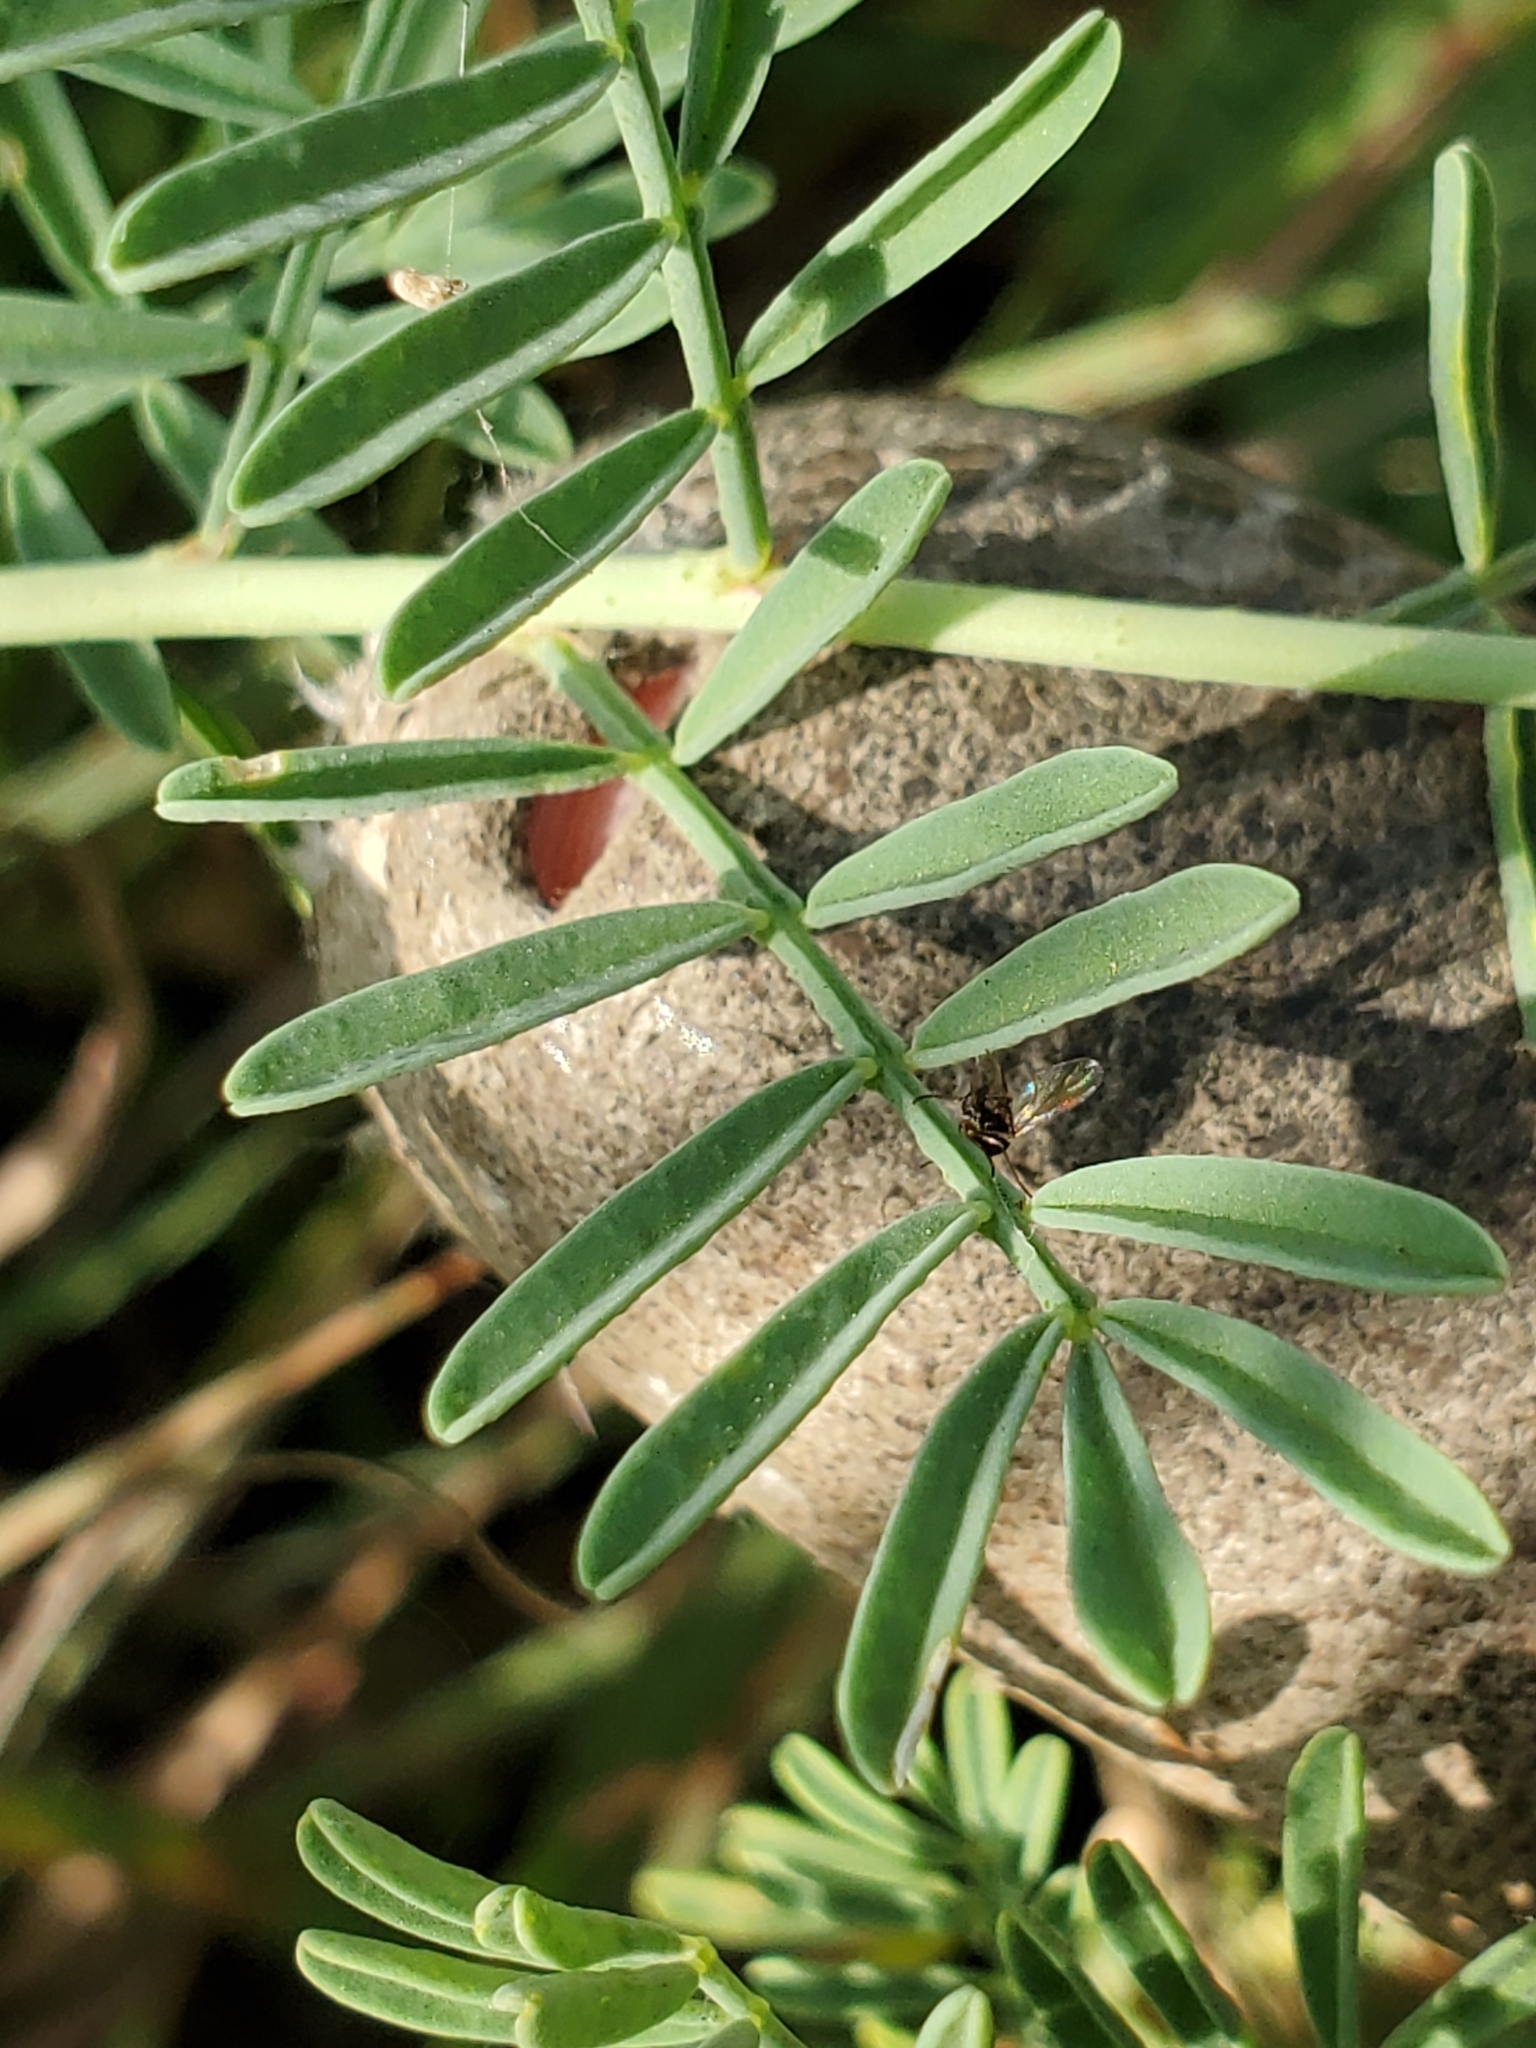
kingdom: Plantae
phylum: Tracheophyta
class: Magnoliopsida
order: Fabales
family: Fabaceae
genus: Dalea
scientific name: Dalea lasiathera
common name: Purple prairie-clover
